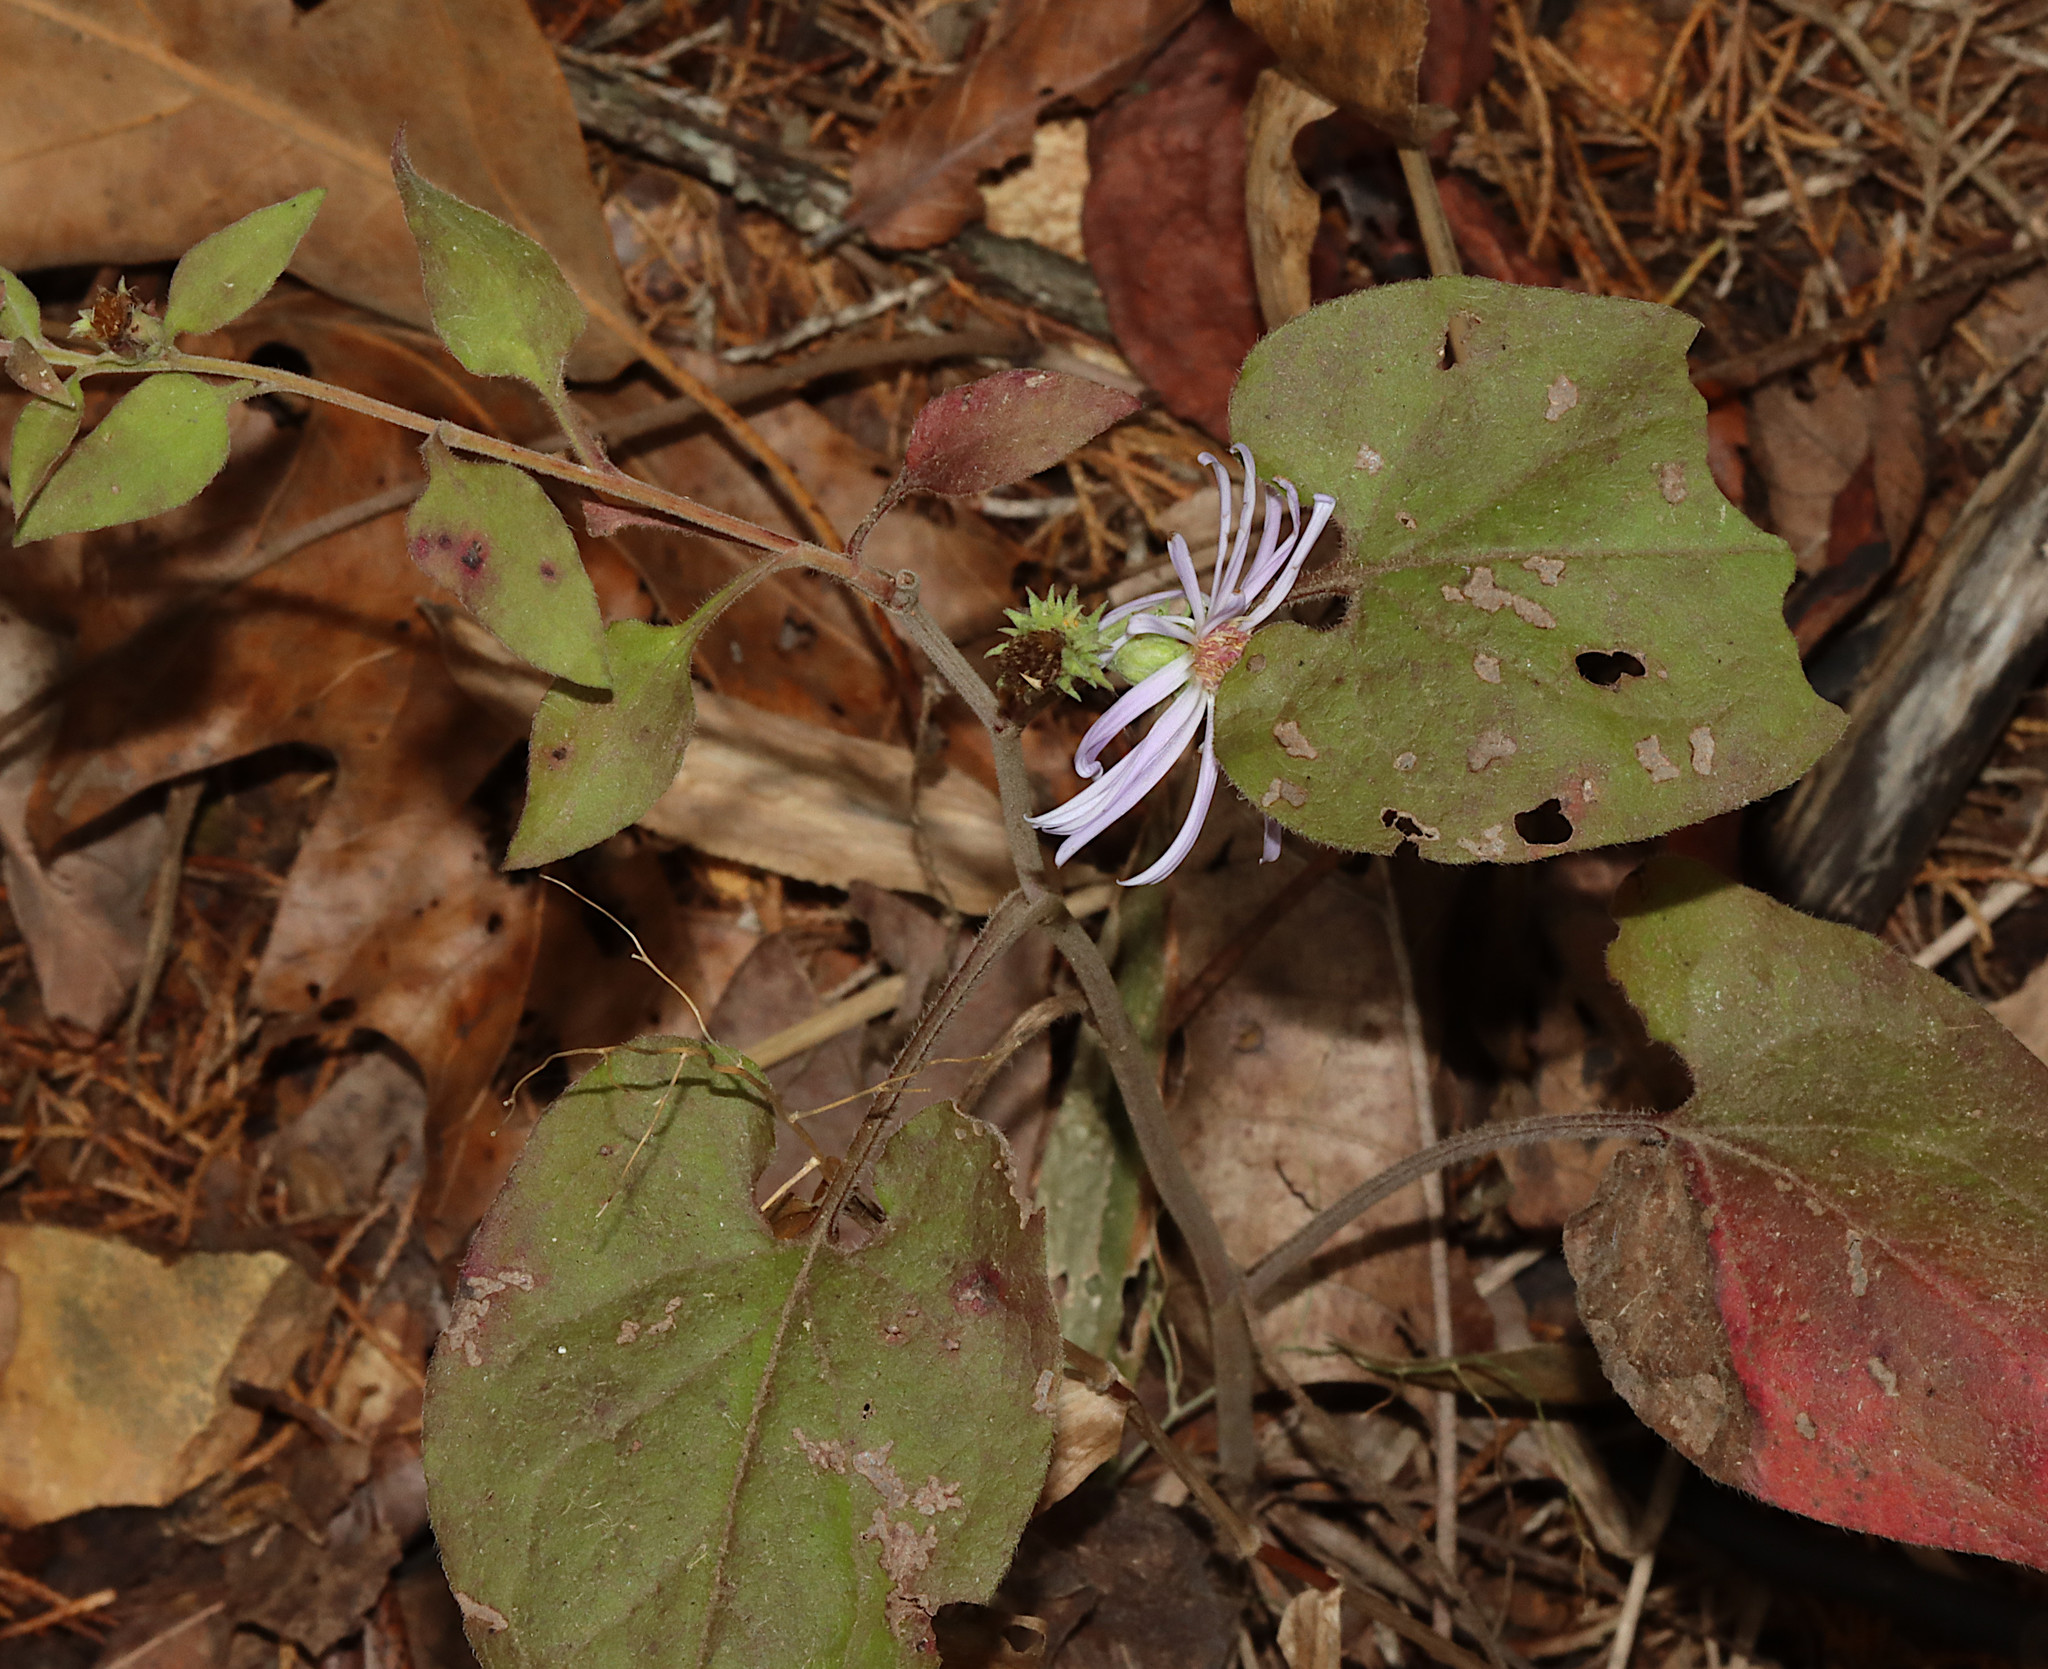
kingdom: Plantae
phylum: Tracheophyta
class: Magnoliopsida
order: Asterales
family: Asteraceae
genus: Symphyotrichum
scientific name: Symphyotrichum anomalum
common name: Many-ray aster
